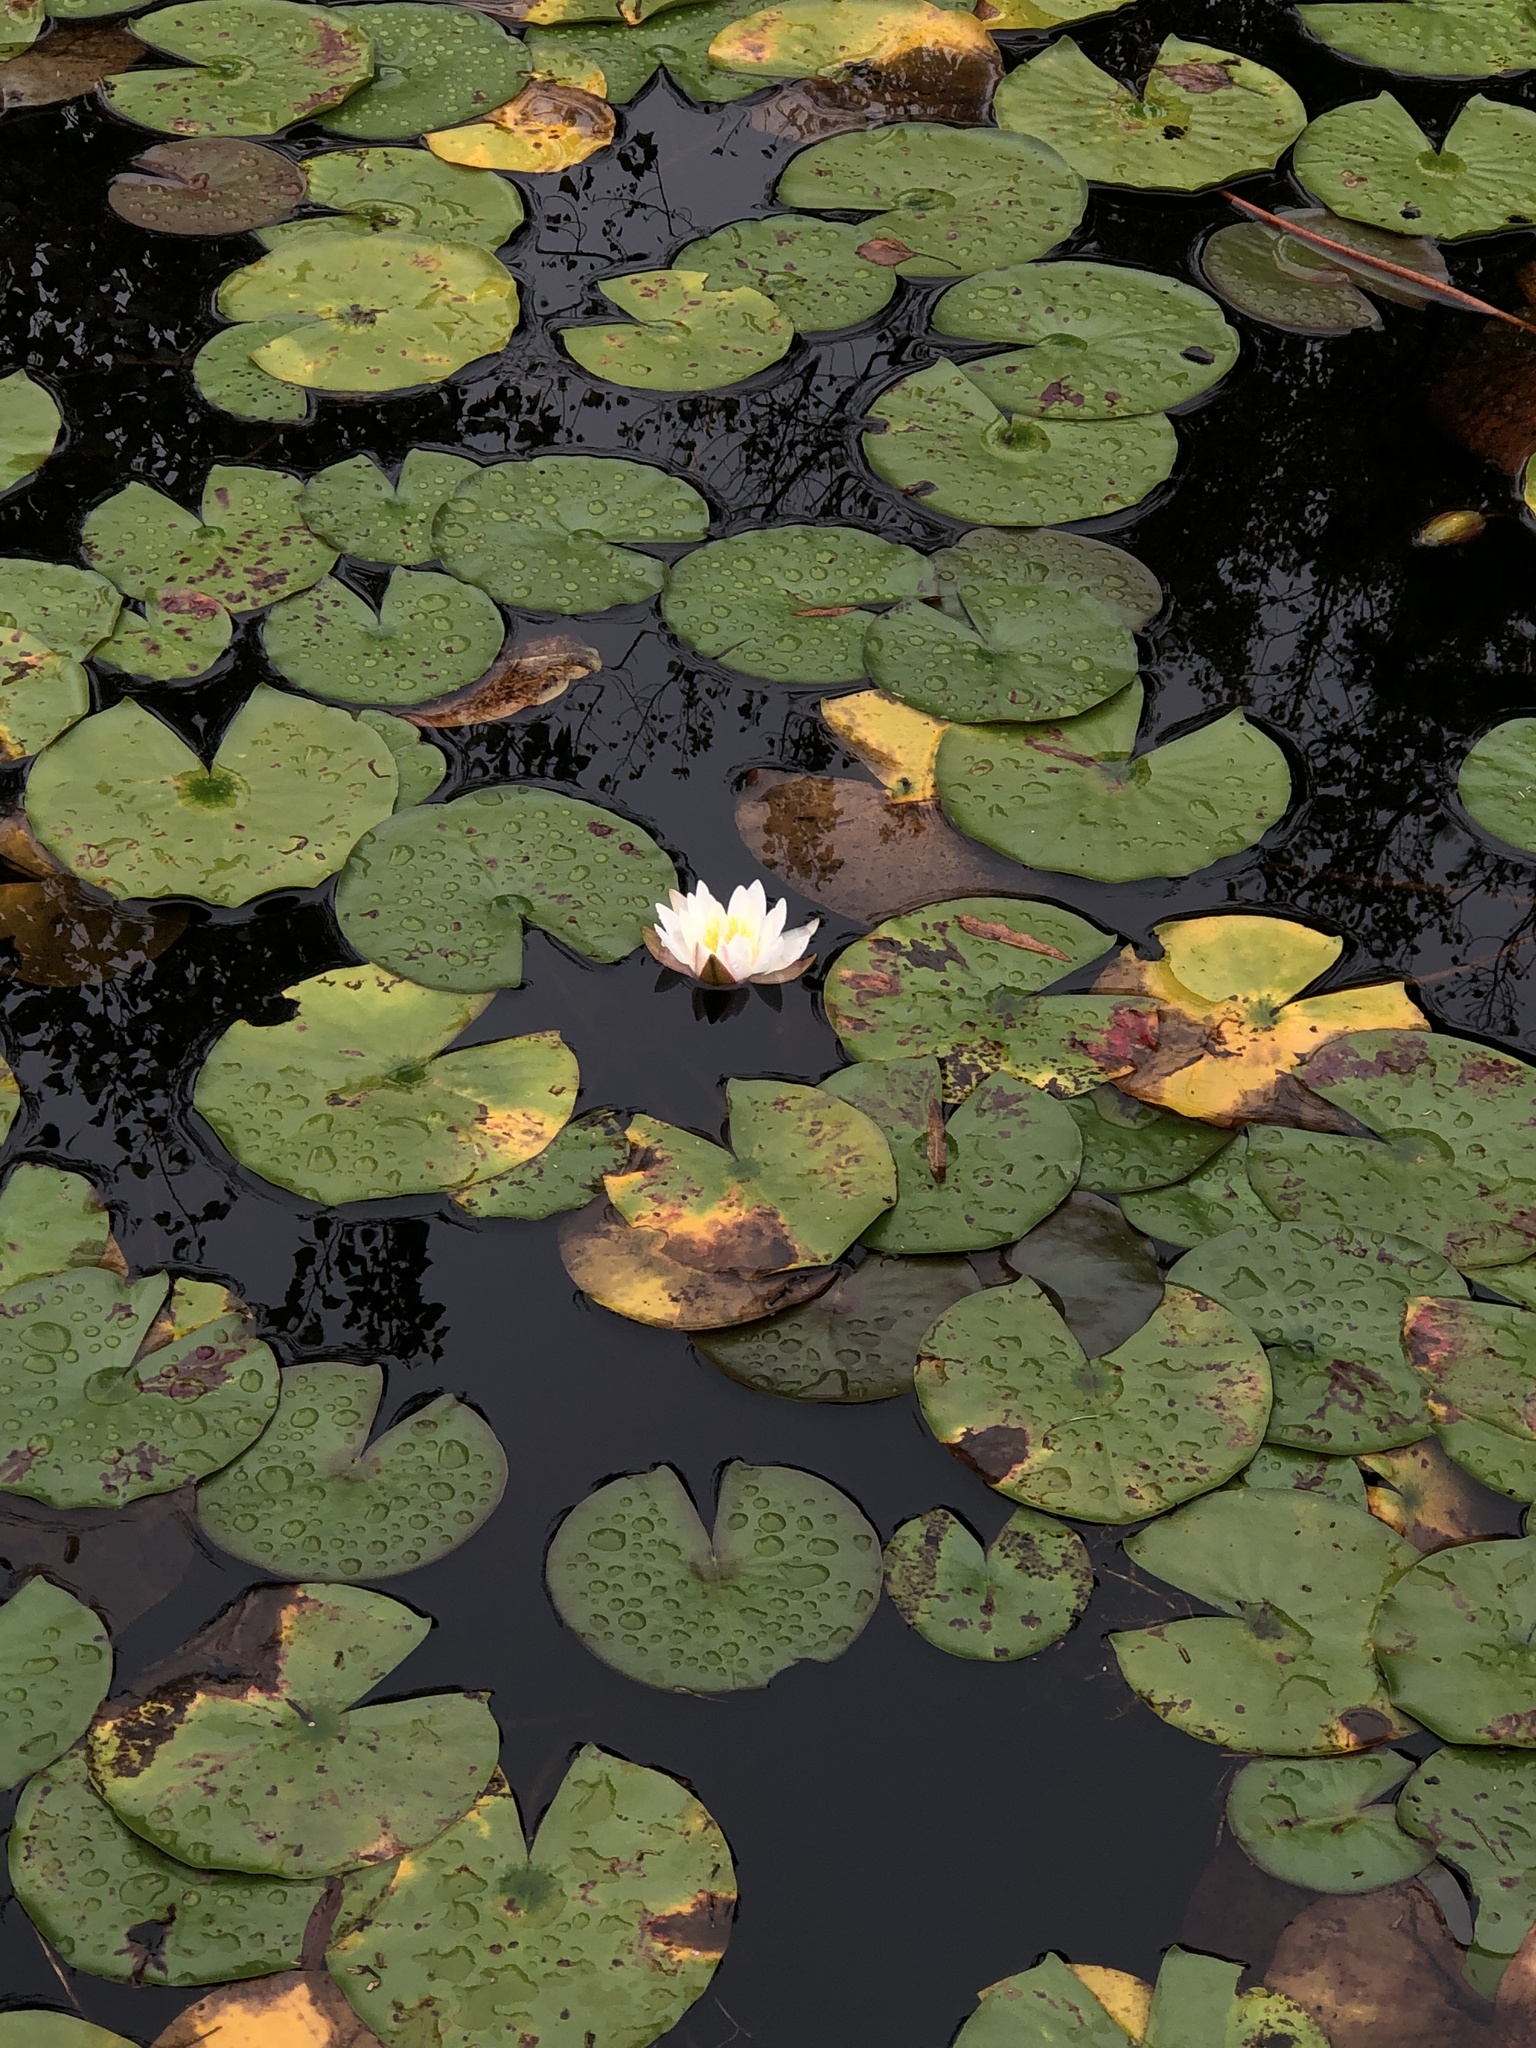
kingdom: Plantae
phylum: Tracheophyta
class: Magnoliopsida
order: Nymphaeales
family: Nymphaeaceae
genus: Nymphaea
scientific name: Nymphaea odorata
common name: Fragrant water-lily
